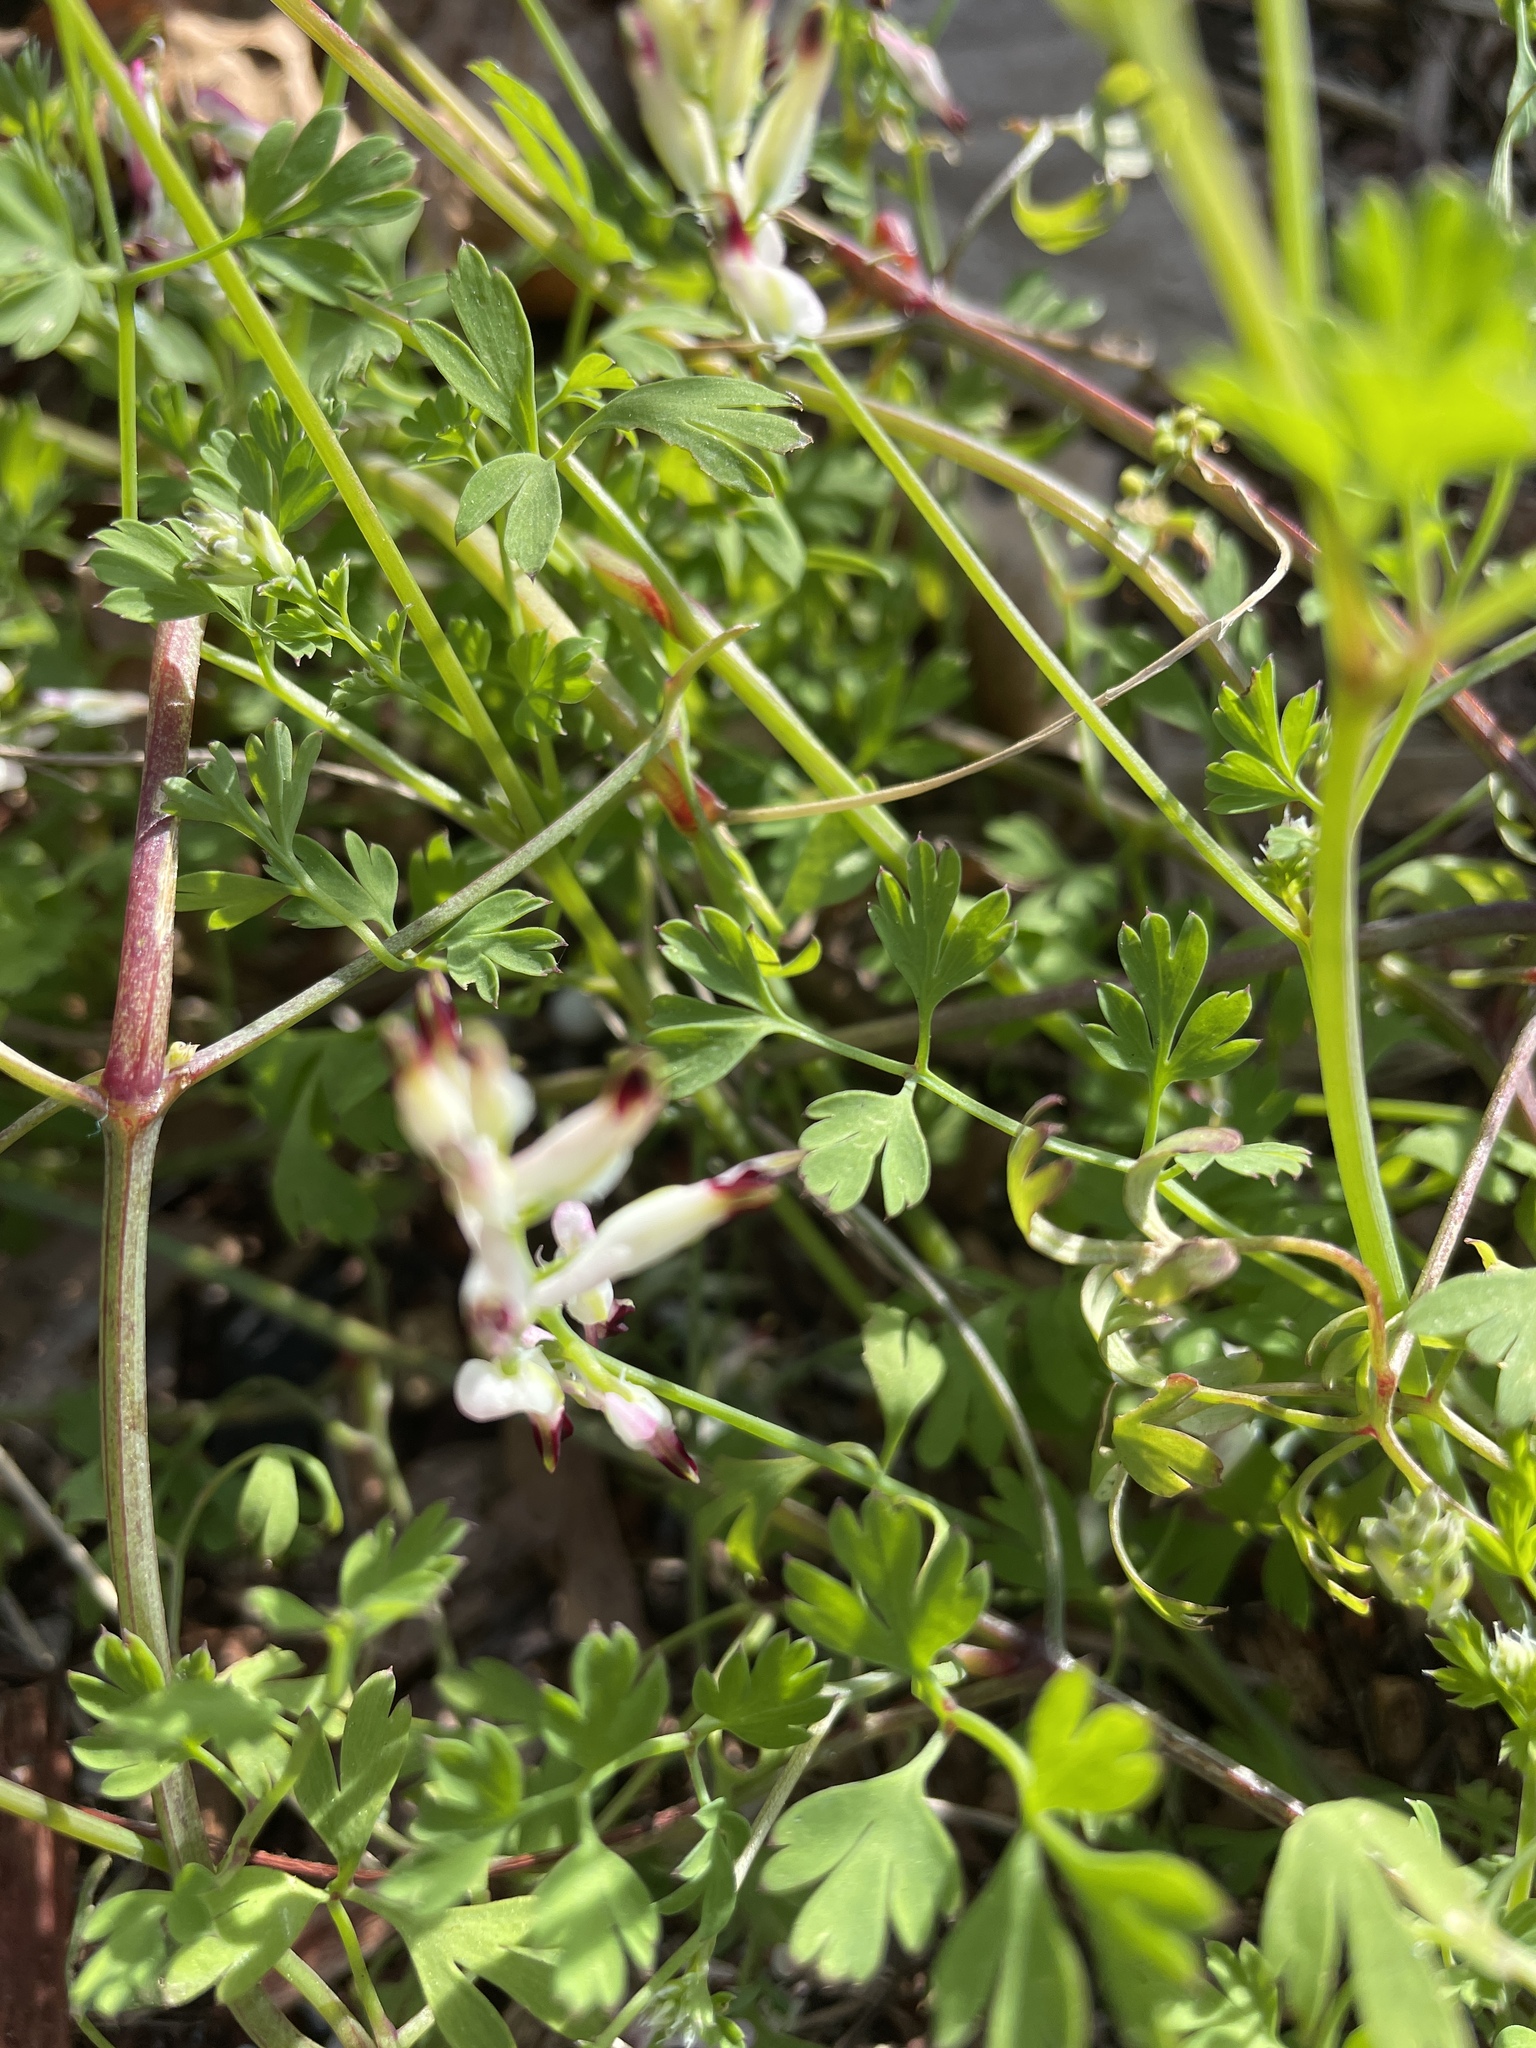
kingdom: Plantae
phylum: Tracheophyta
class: Magnoliopsida
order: Ranunculales
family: Papaveraceae
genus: Fumaria
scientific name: Fumaria capreolata
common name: White ramping-fumitory
